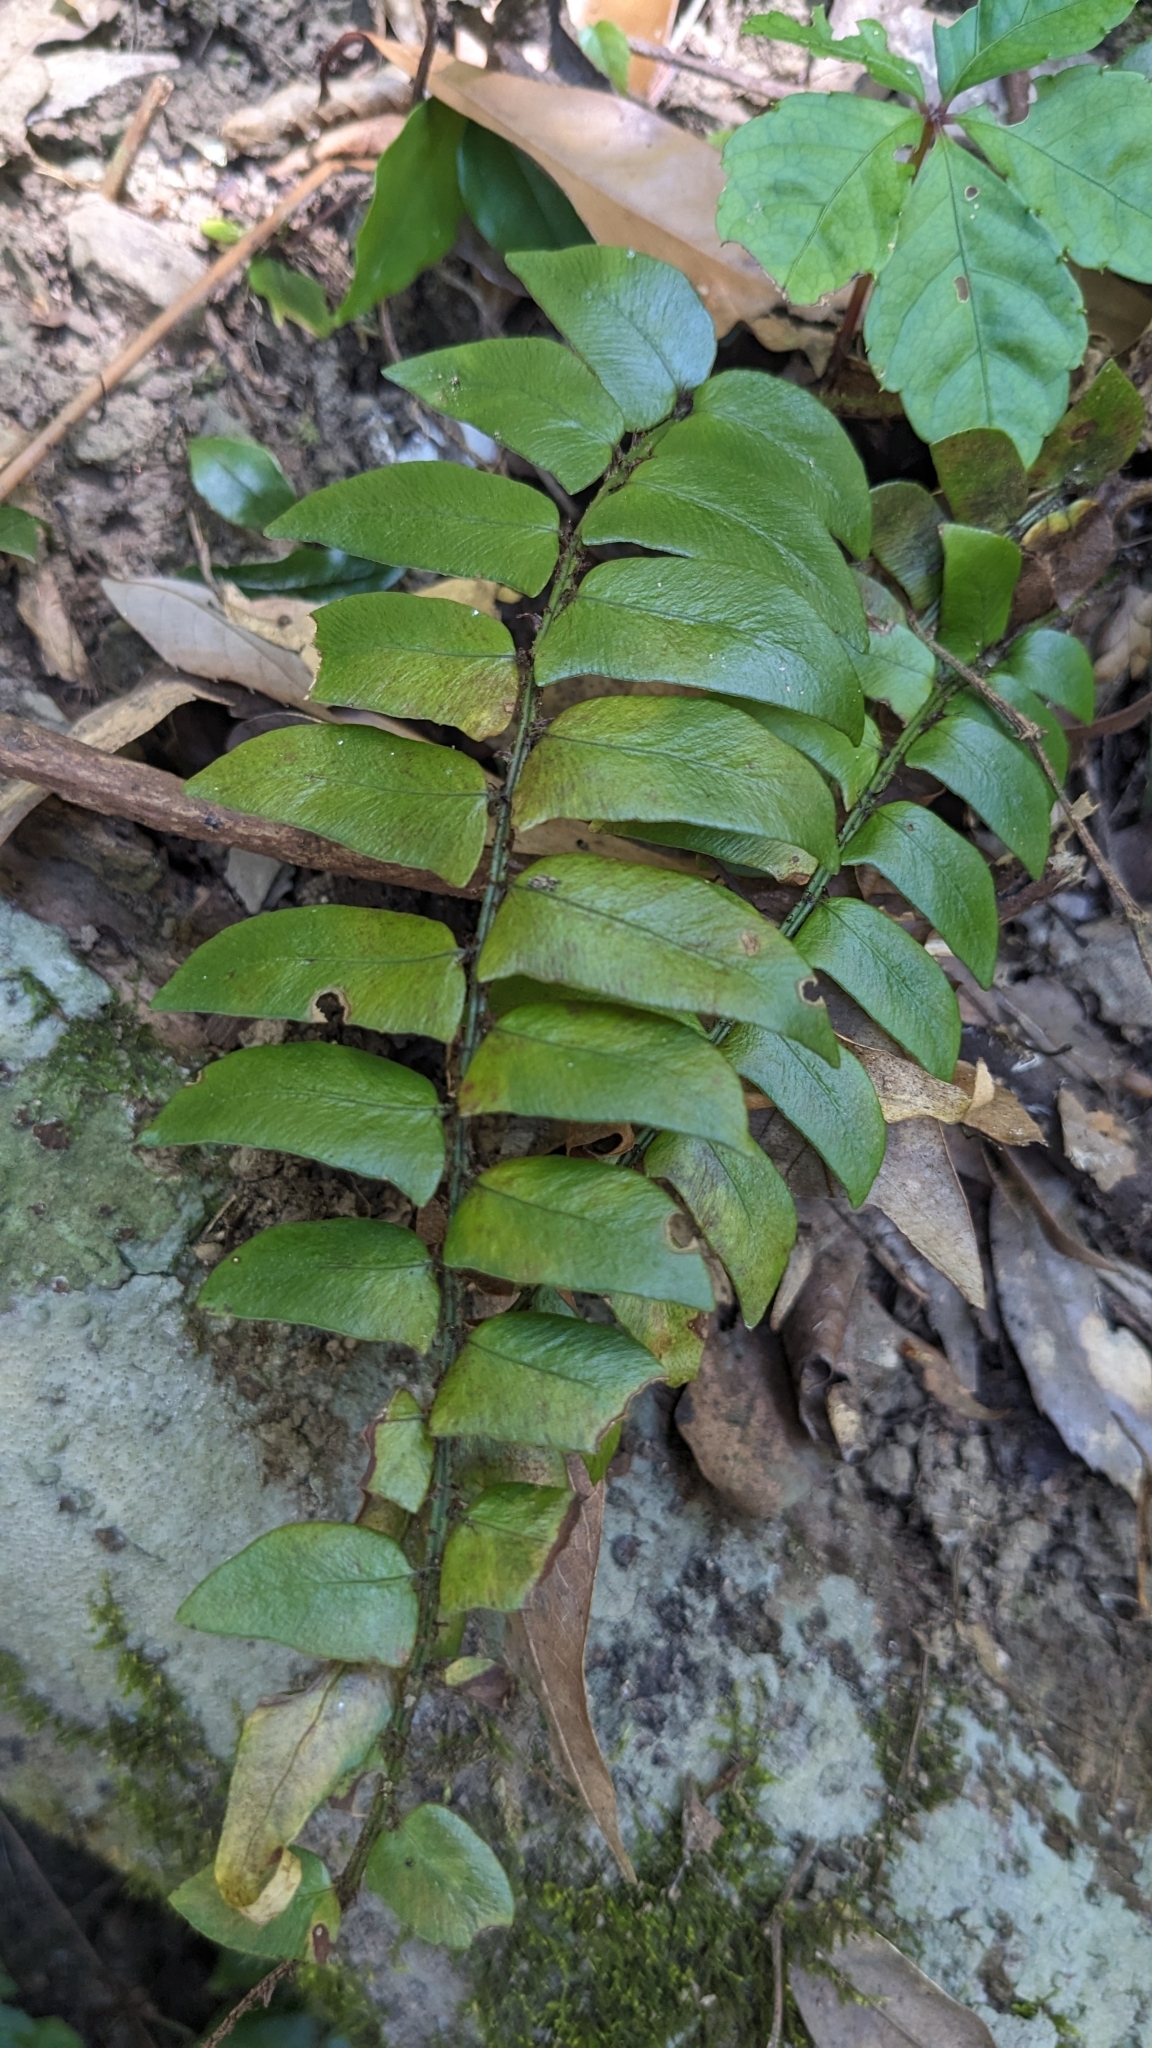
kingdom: Plantae
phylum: Tracheophyta
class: Polypodiopsida
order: Polypodiales
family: Dryopteridaceae
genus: Polystichum
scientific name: Polystichum lepidocaulon
